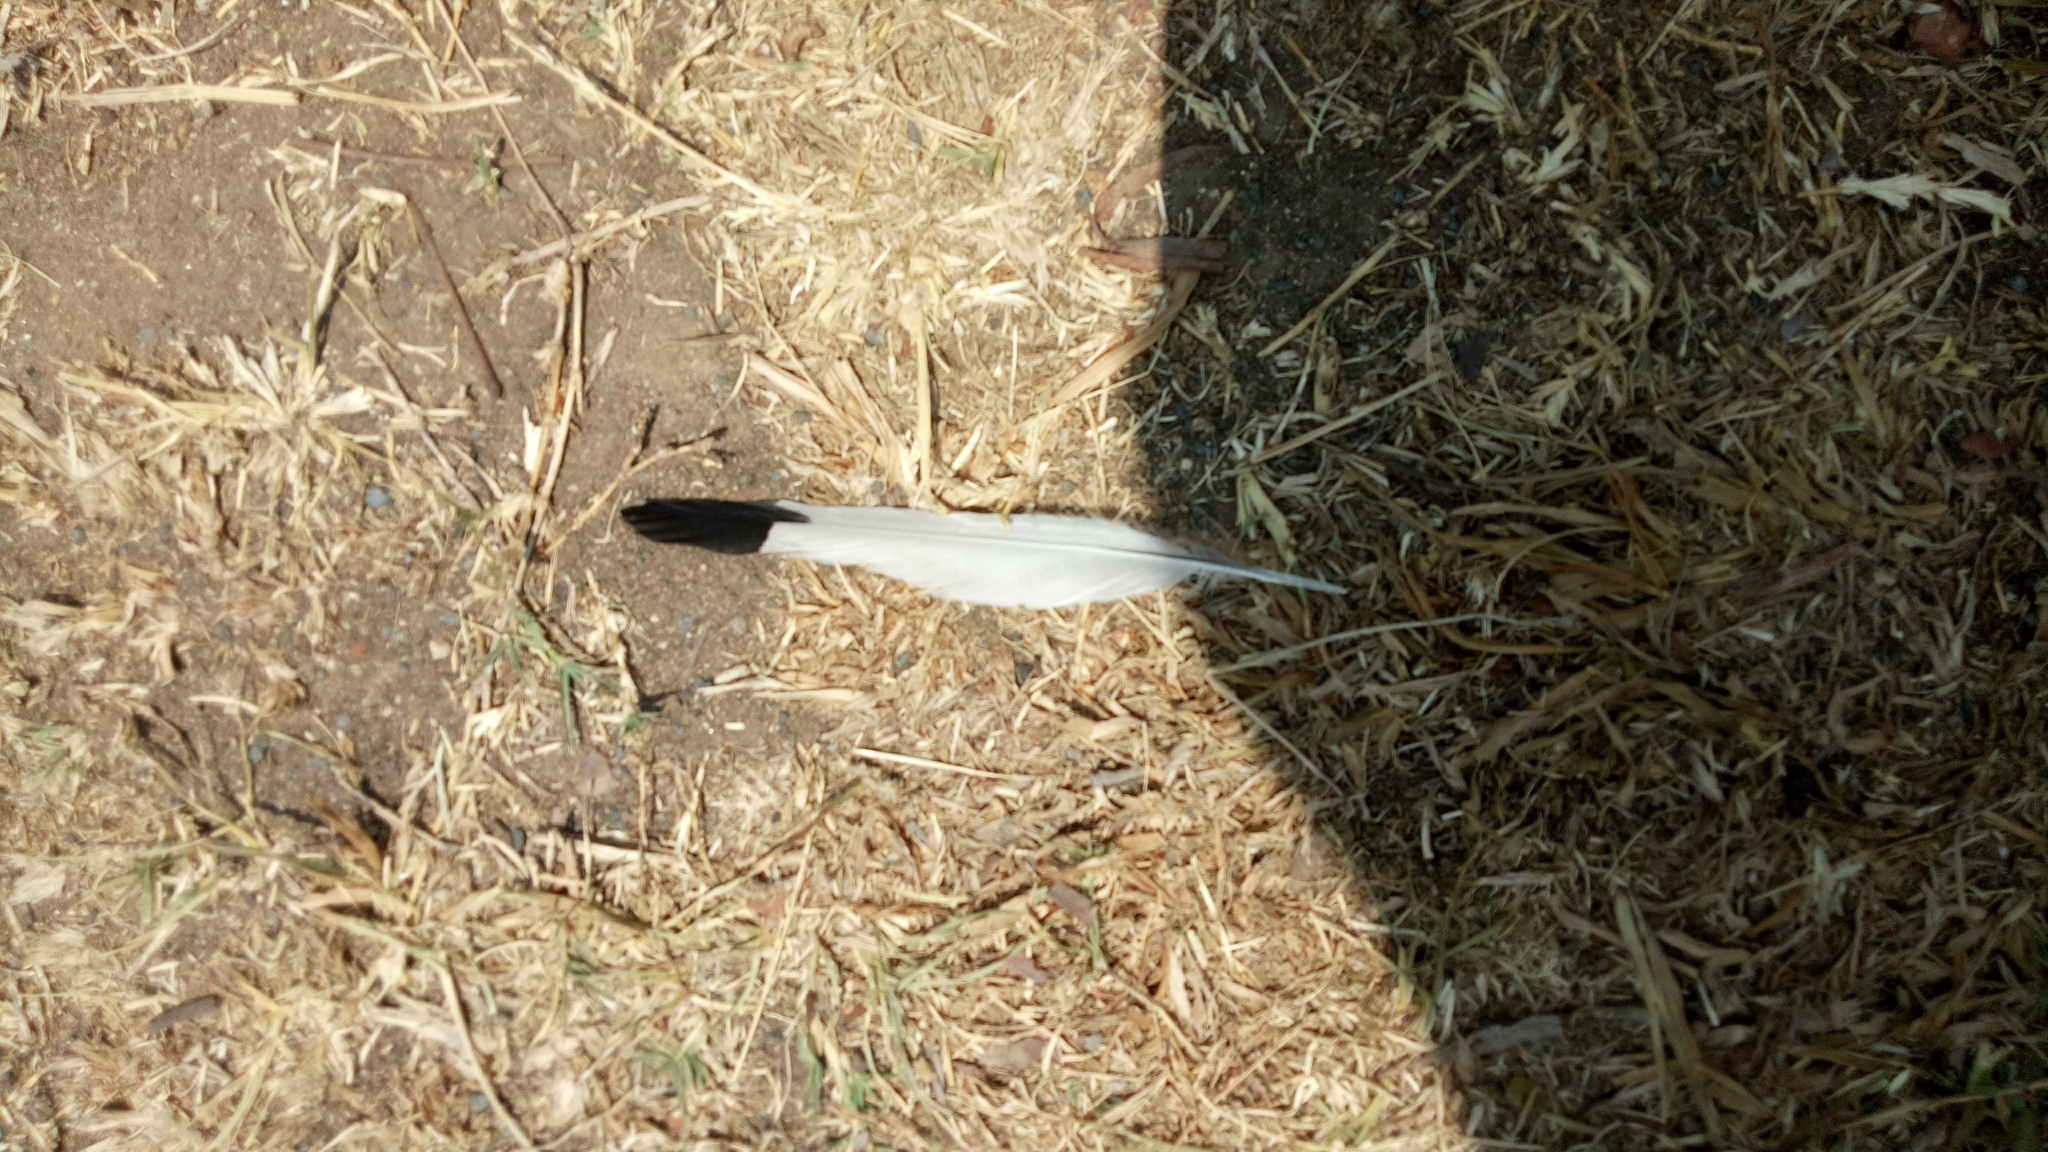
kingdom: Animalia
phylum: Chordata
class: Aves
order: Passeriformes
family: Monarchidae
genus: Grallina
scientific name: Grallina cyanoleuca
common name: Magpie-lark
